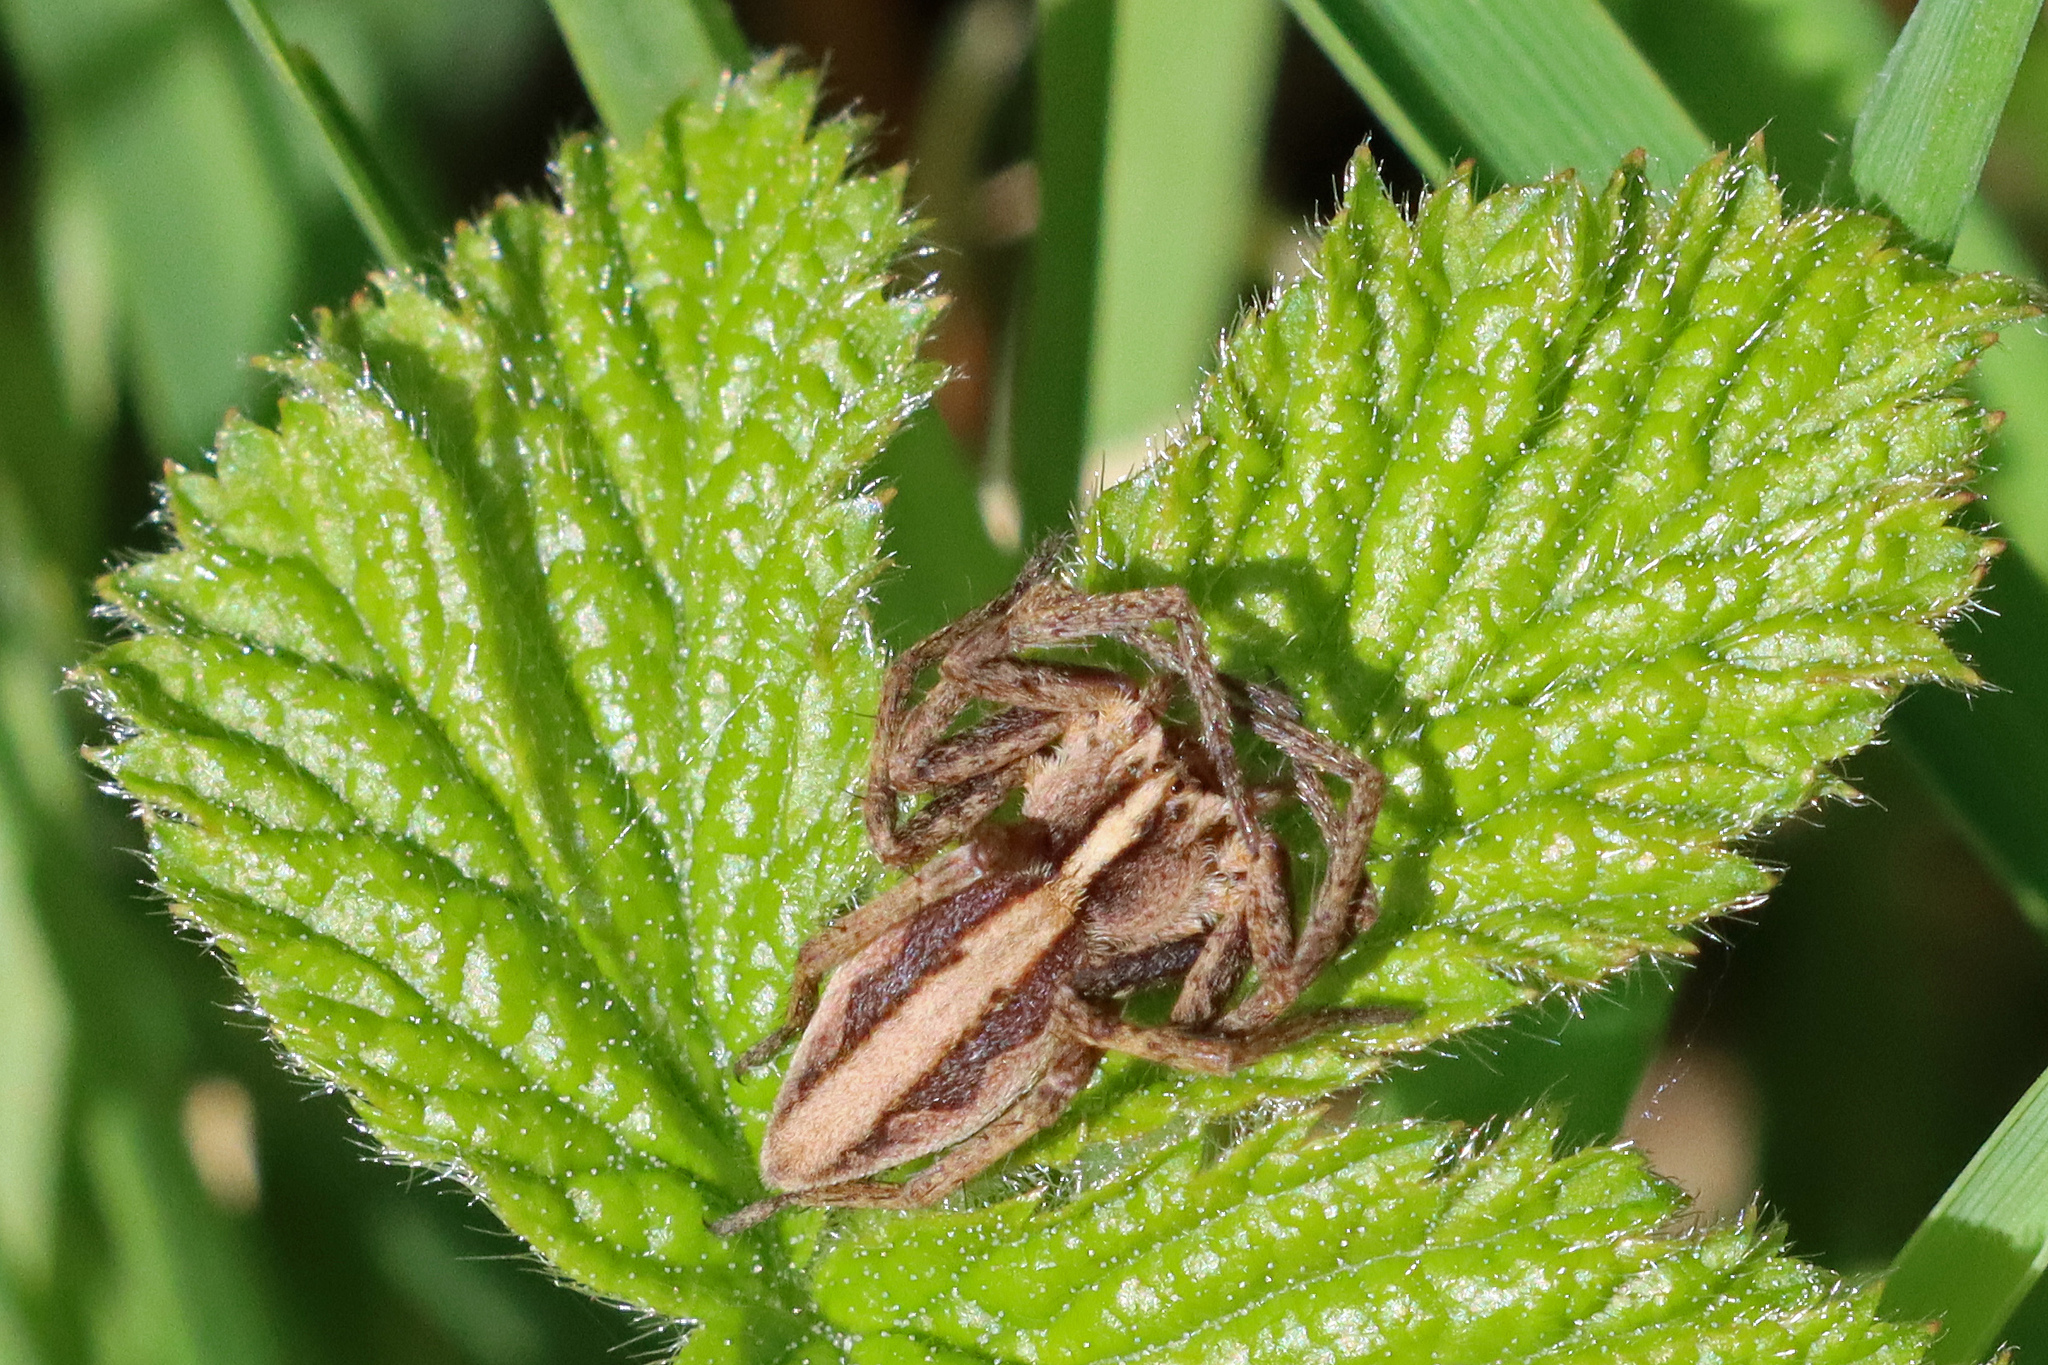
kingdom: Animalia
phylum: Arthropoda
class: Arachnida
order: Araneae
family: Pisauridae
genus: Pisaura
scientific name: Pisaura mirabilis
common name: Tent spider
